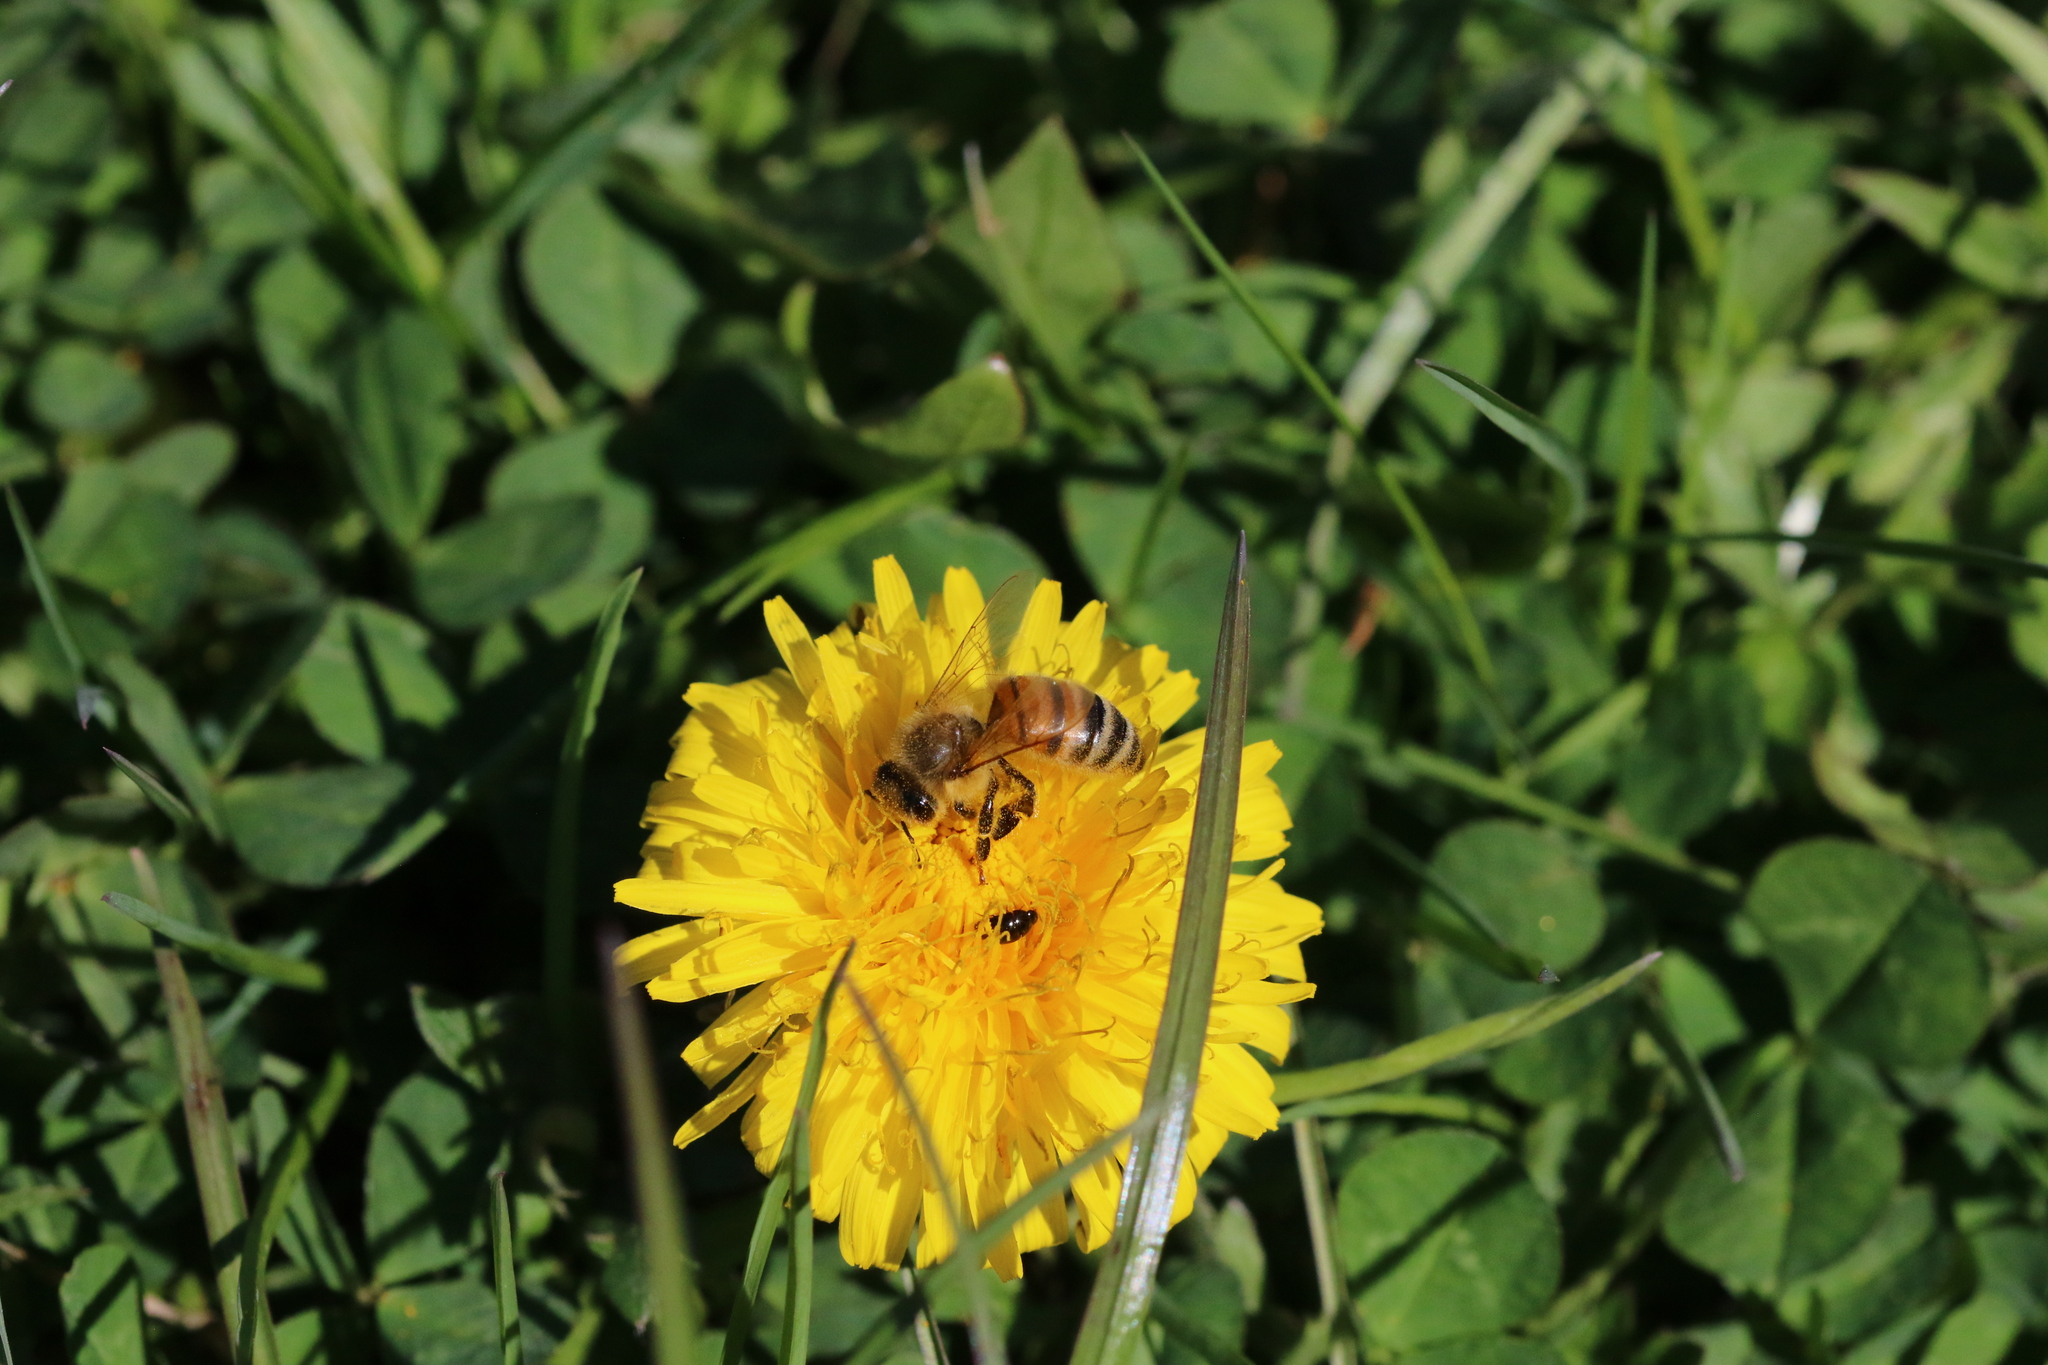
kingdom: Animalia
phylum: Arthropoda
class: Insecta
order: Hymenoptera
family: Apidae
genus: Apis
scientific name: Apis mellifera
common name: Honey bee
